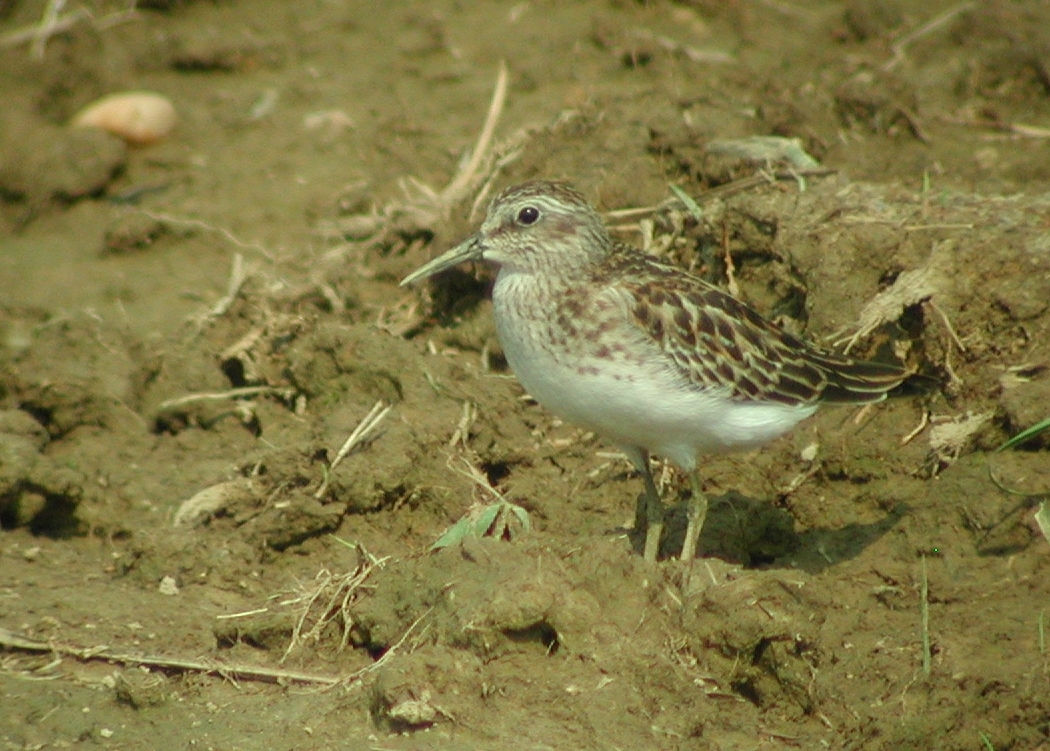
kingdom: Animalia
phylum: Chordata
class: Aves
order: Charadriiformes
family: Scolopacidae
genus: Calidris
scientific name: Calidris minutilla
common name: Least sandpiper
